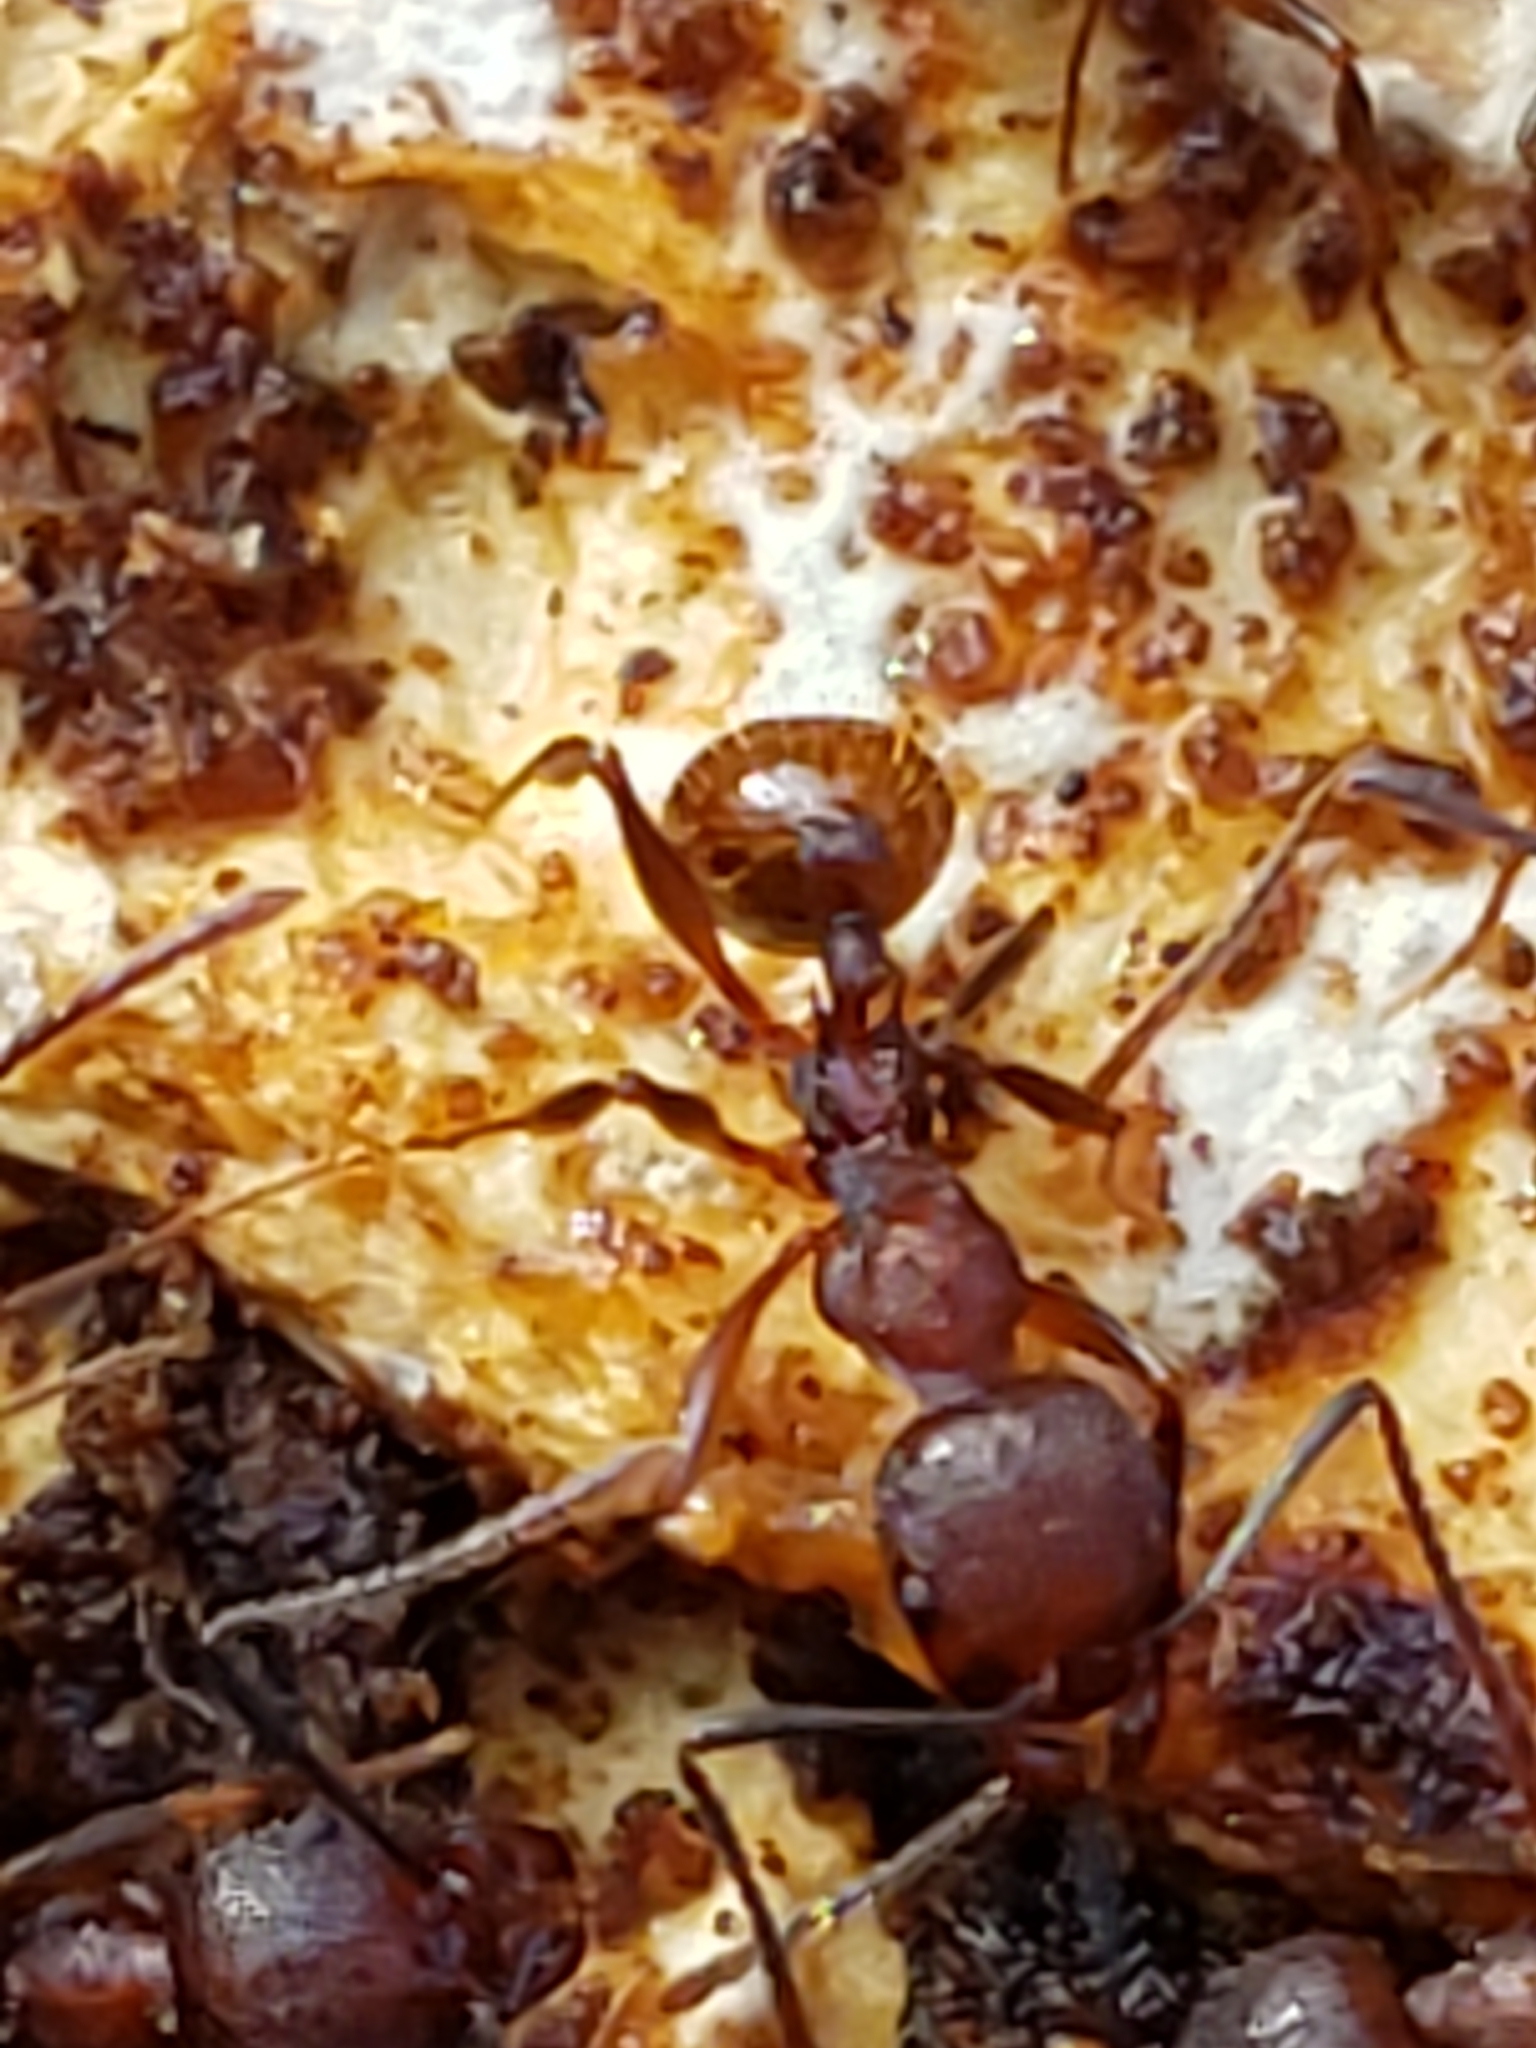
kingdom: Animalia
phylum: Arthropoda
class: Insecta
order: Hymenoptera
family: Formicidae
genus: Aphaenogaster
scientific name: Aphaenogaster fulva
